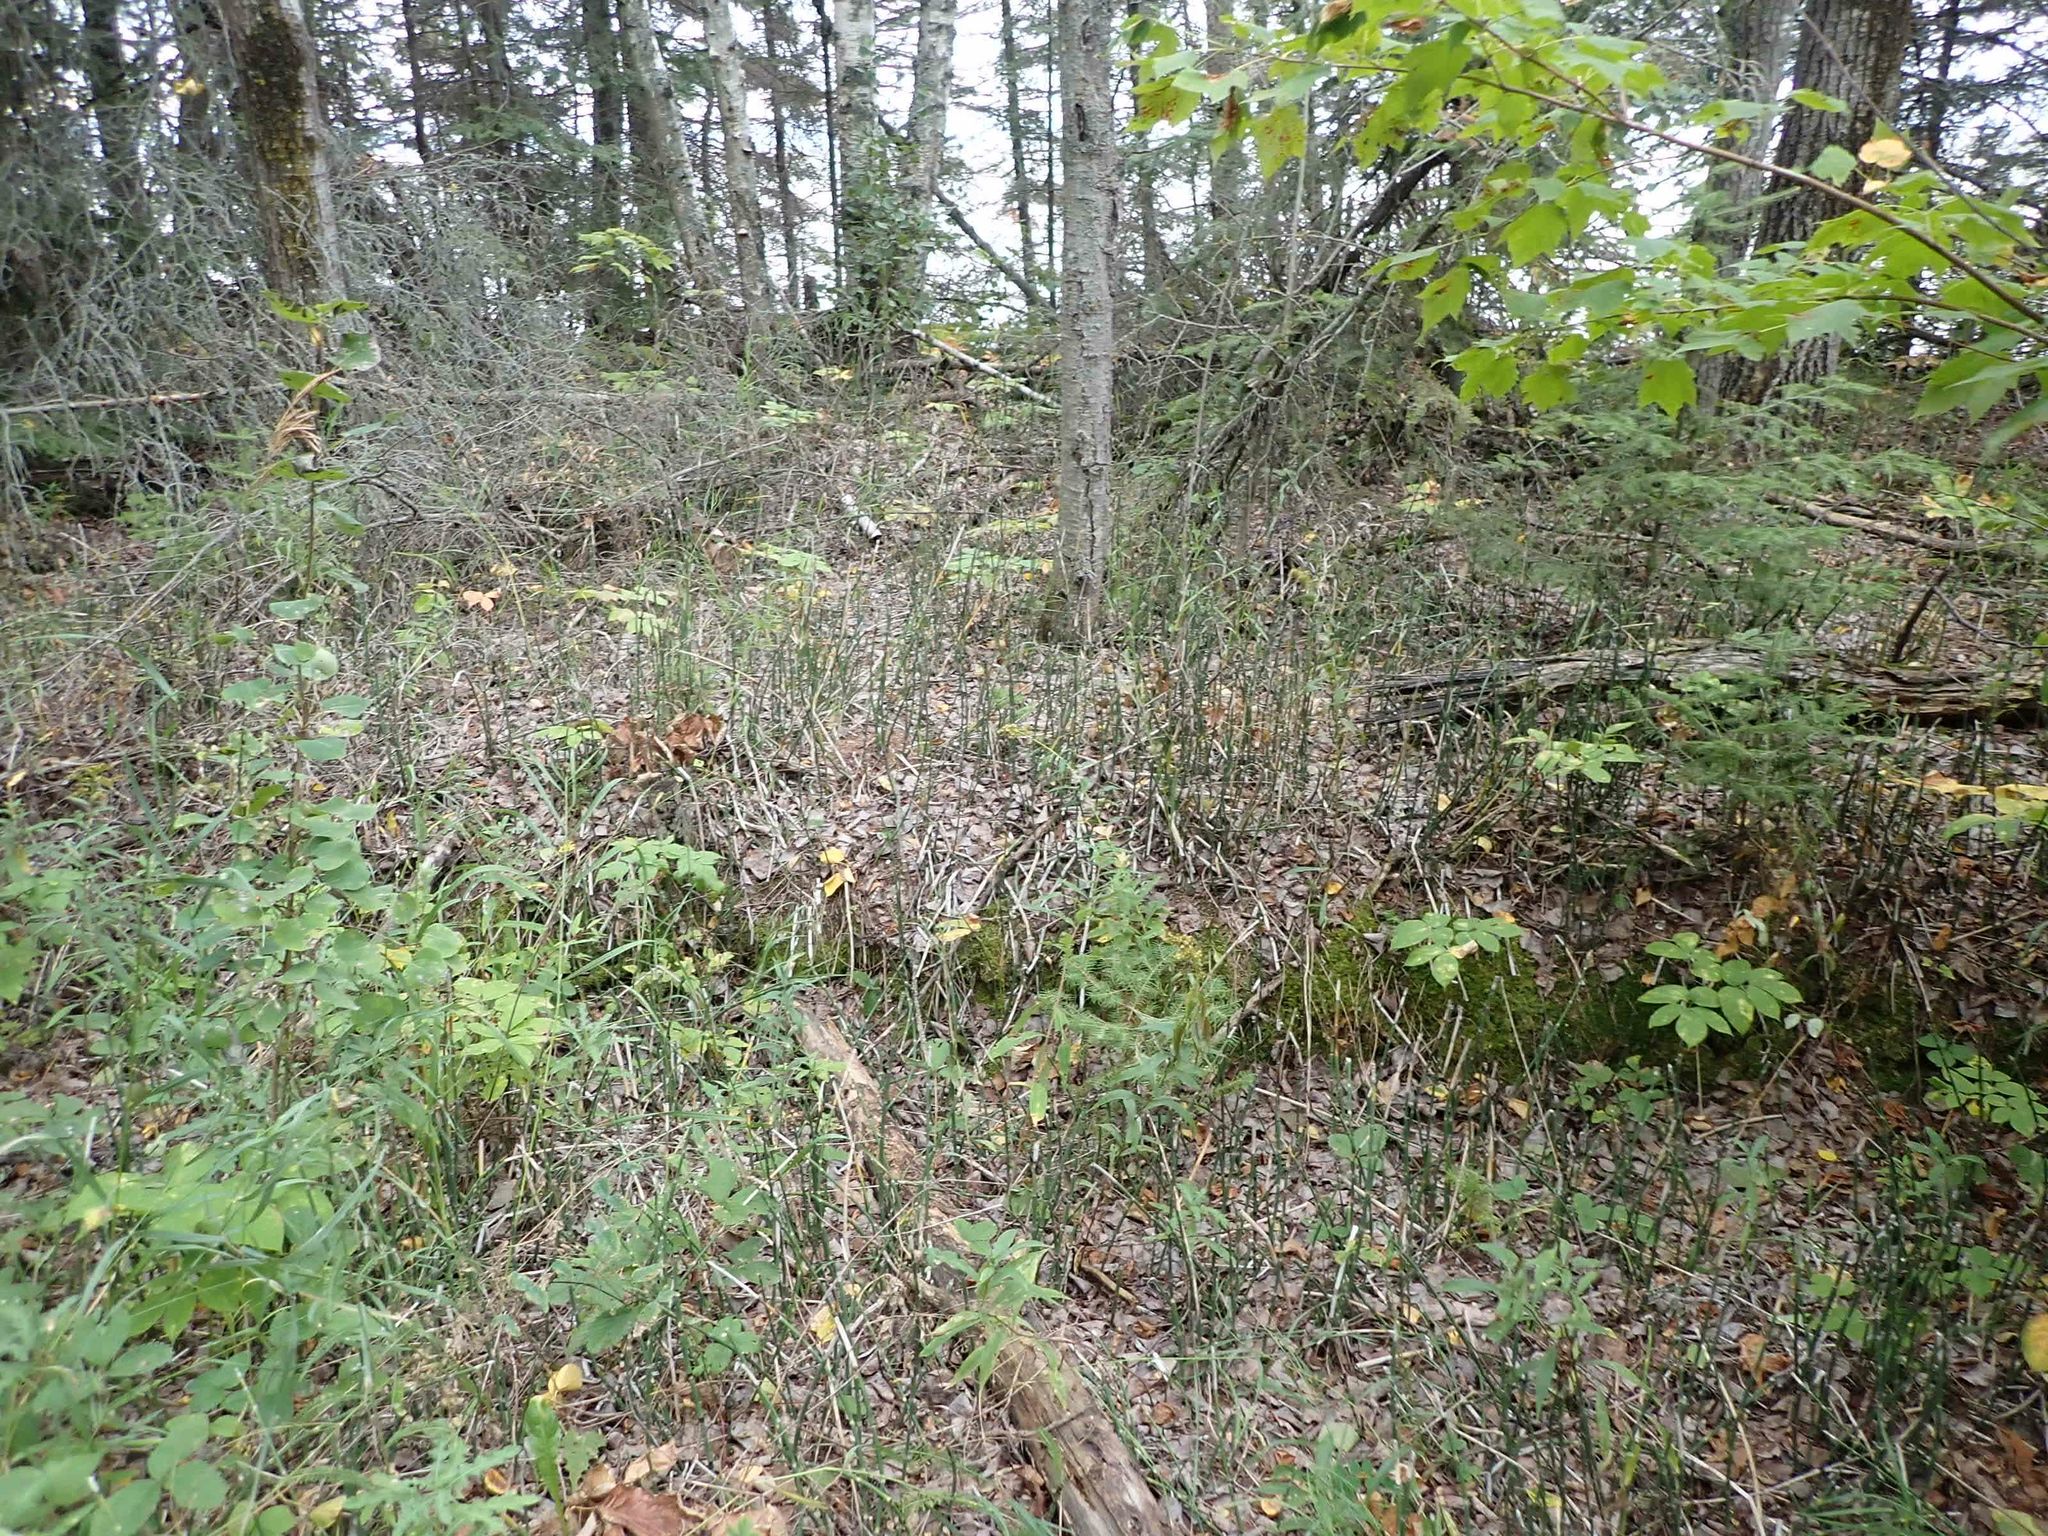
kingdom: Plantae
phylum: Tracheophyta
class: Polypodiopsida
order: Equisetales
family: Equisetaceae
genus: Equisetum
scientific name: Equisetum praealtum
